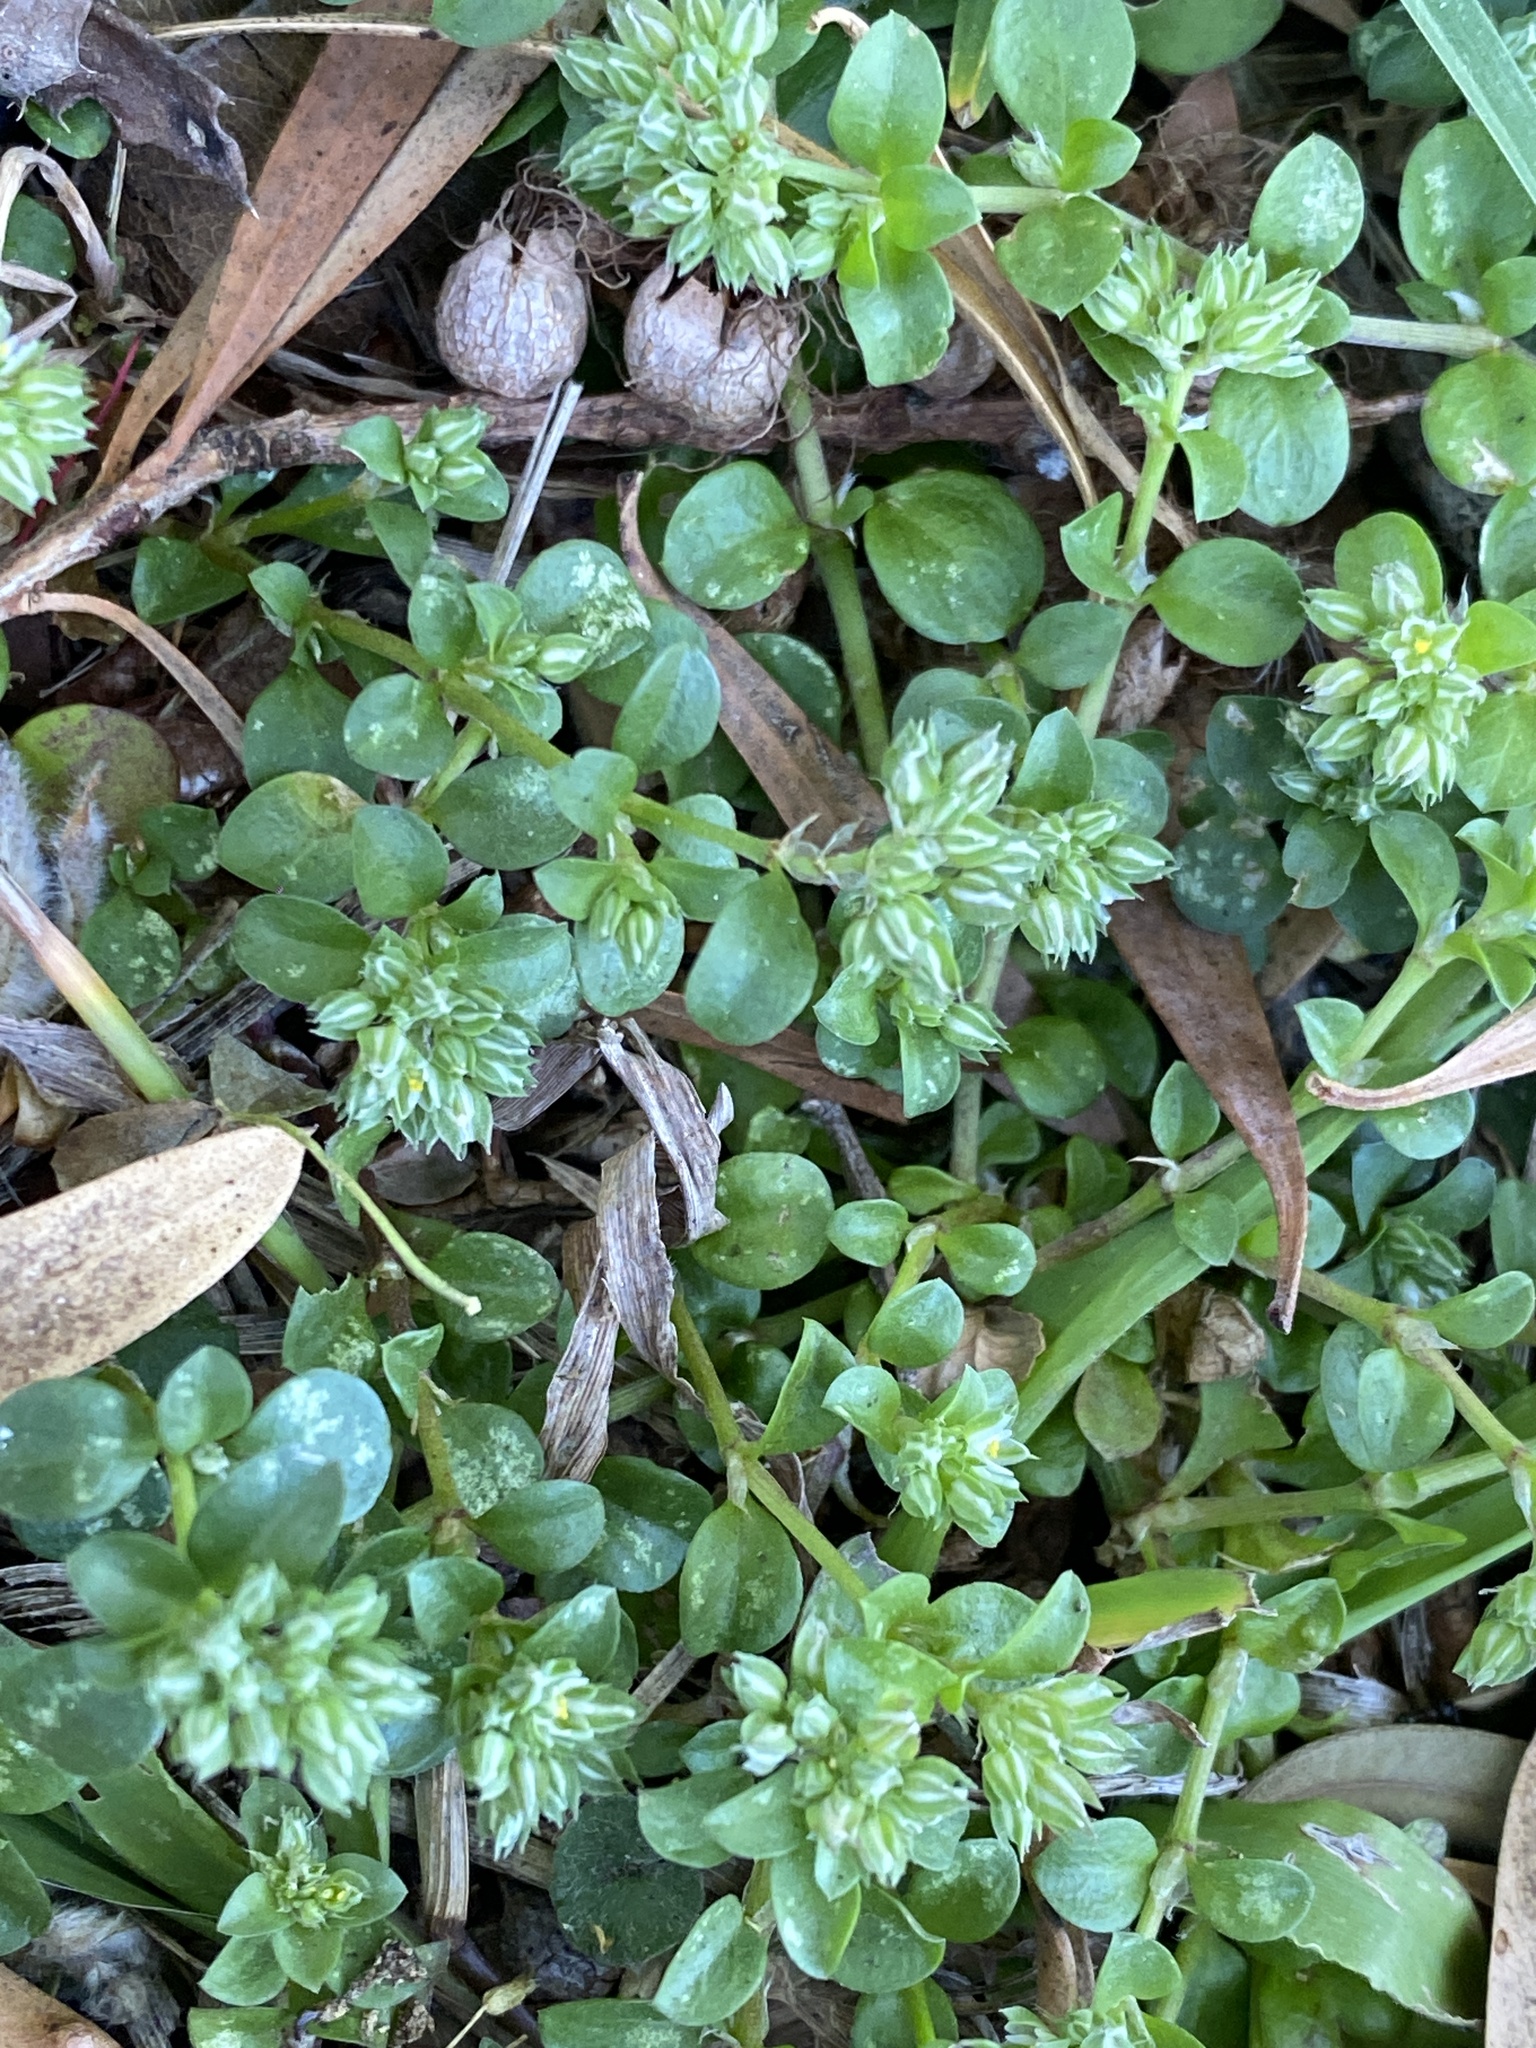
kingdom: Plantae
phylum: Tracheophyta
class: Magnoliopsida
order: Caryophyllales
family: Caryophyllaceae
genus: Polycarpon
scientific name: Polycarpon tetraphyllum
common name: Four-leaved all-seed
